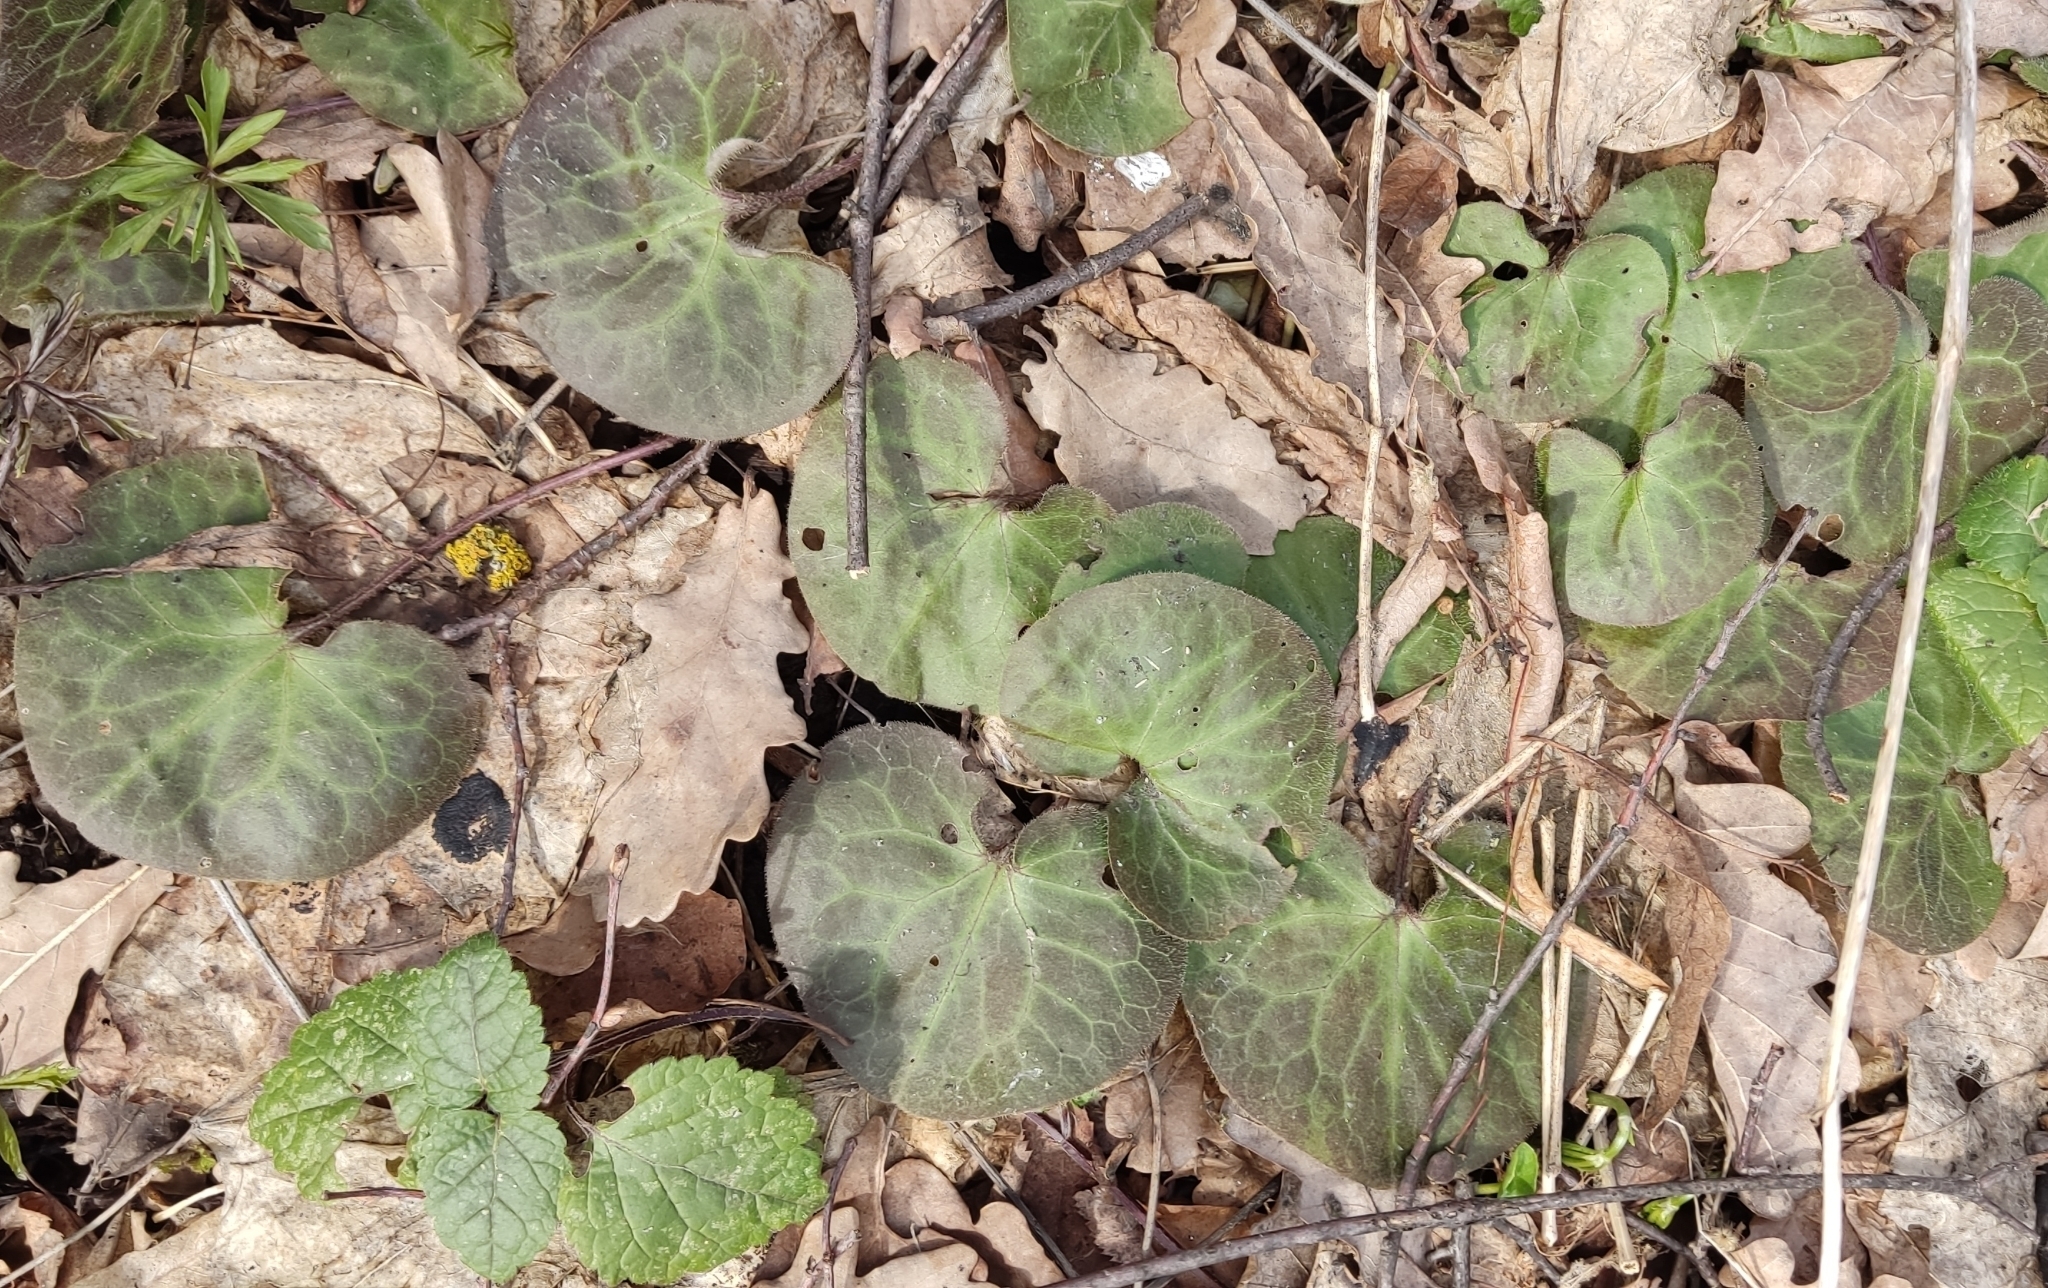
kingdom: Plantae
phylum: Tracheophyta
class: Magnoliopsida
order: Piperales
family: Aristolochiaceae
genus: Asarum
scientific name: Asarum europaeum
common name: Asarabacca
